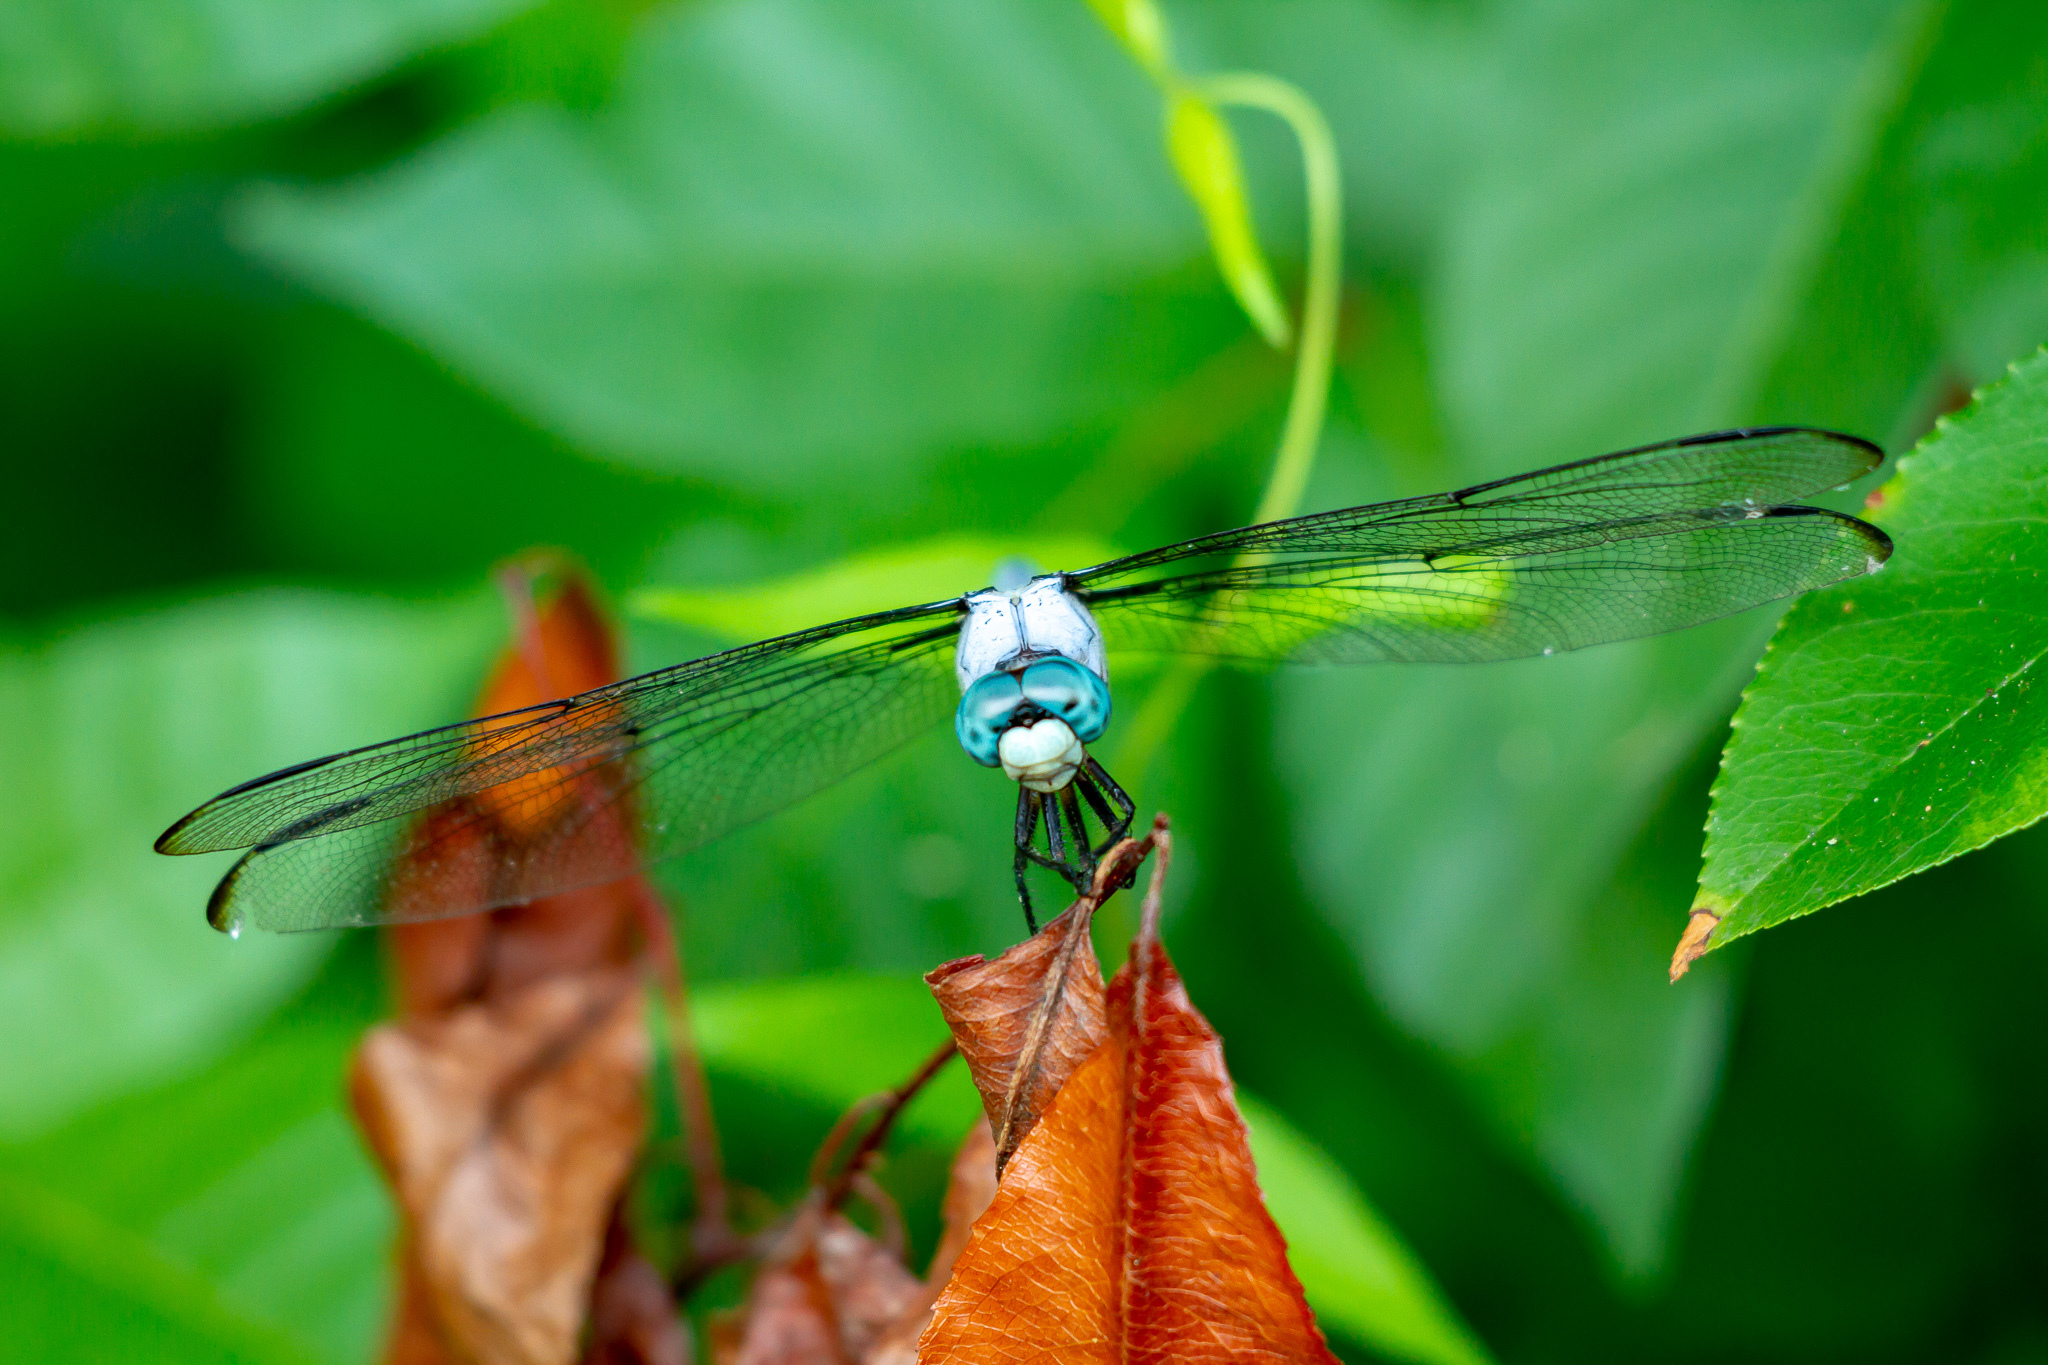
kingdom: Animalia
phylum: Arthropoda
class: Insecta
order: Odonata
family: Libellulidae
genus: Libellula
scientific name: Libellula vibrans
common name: Great blue skimmer
